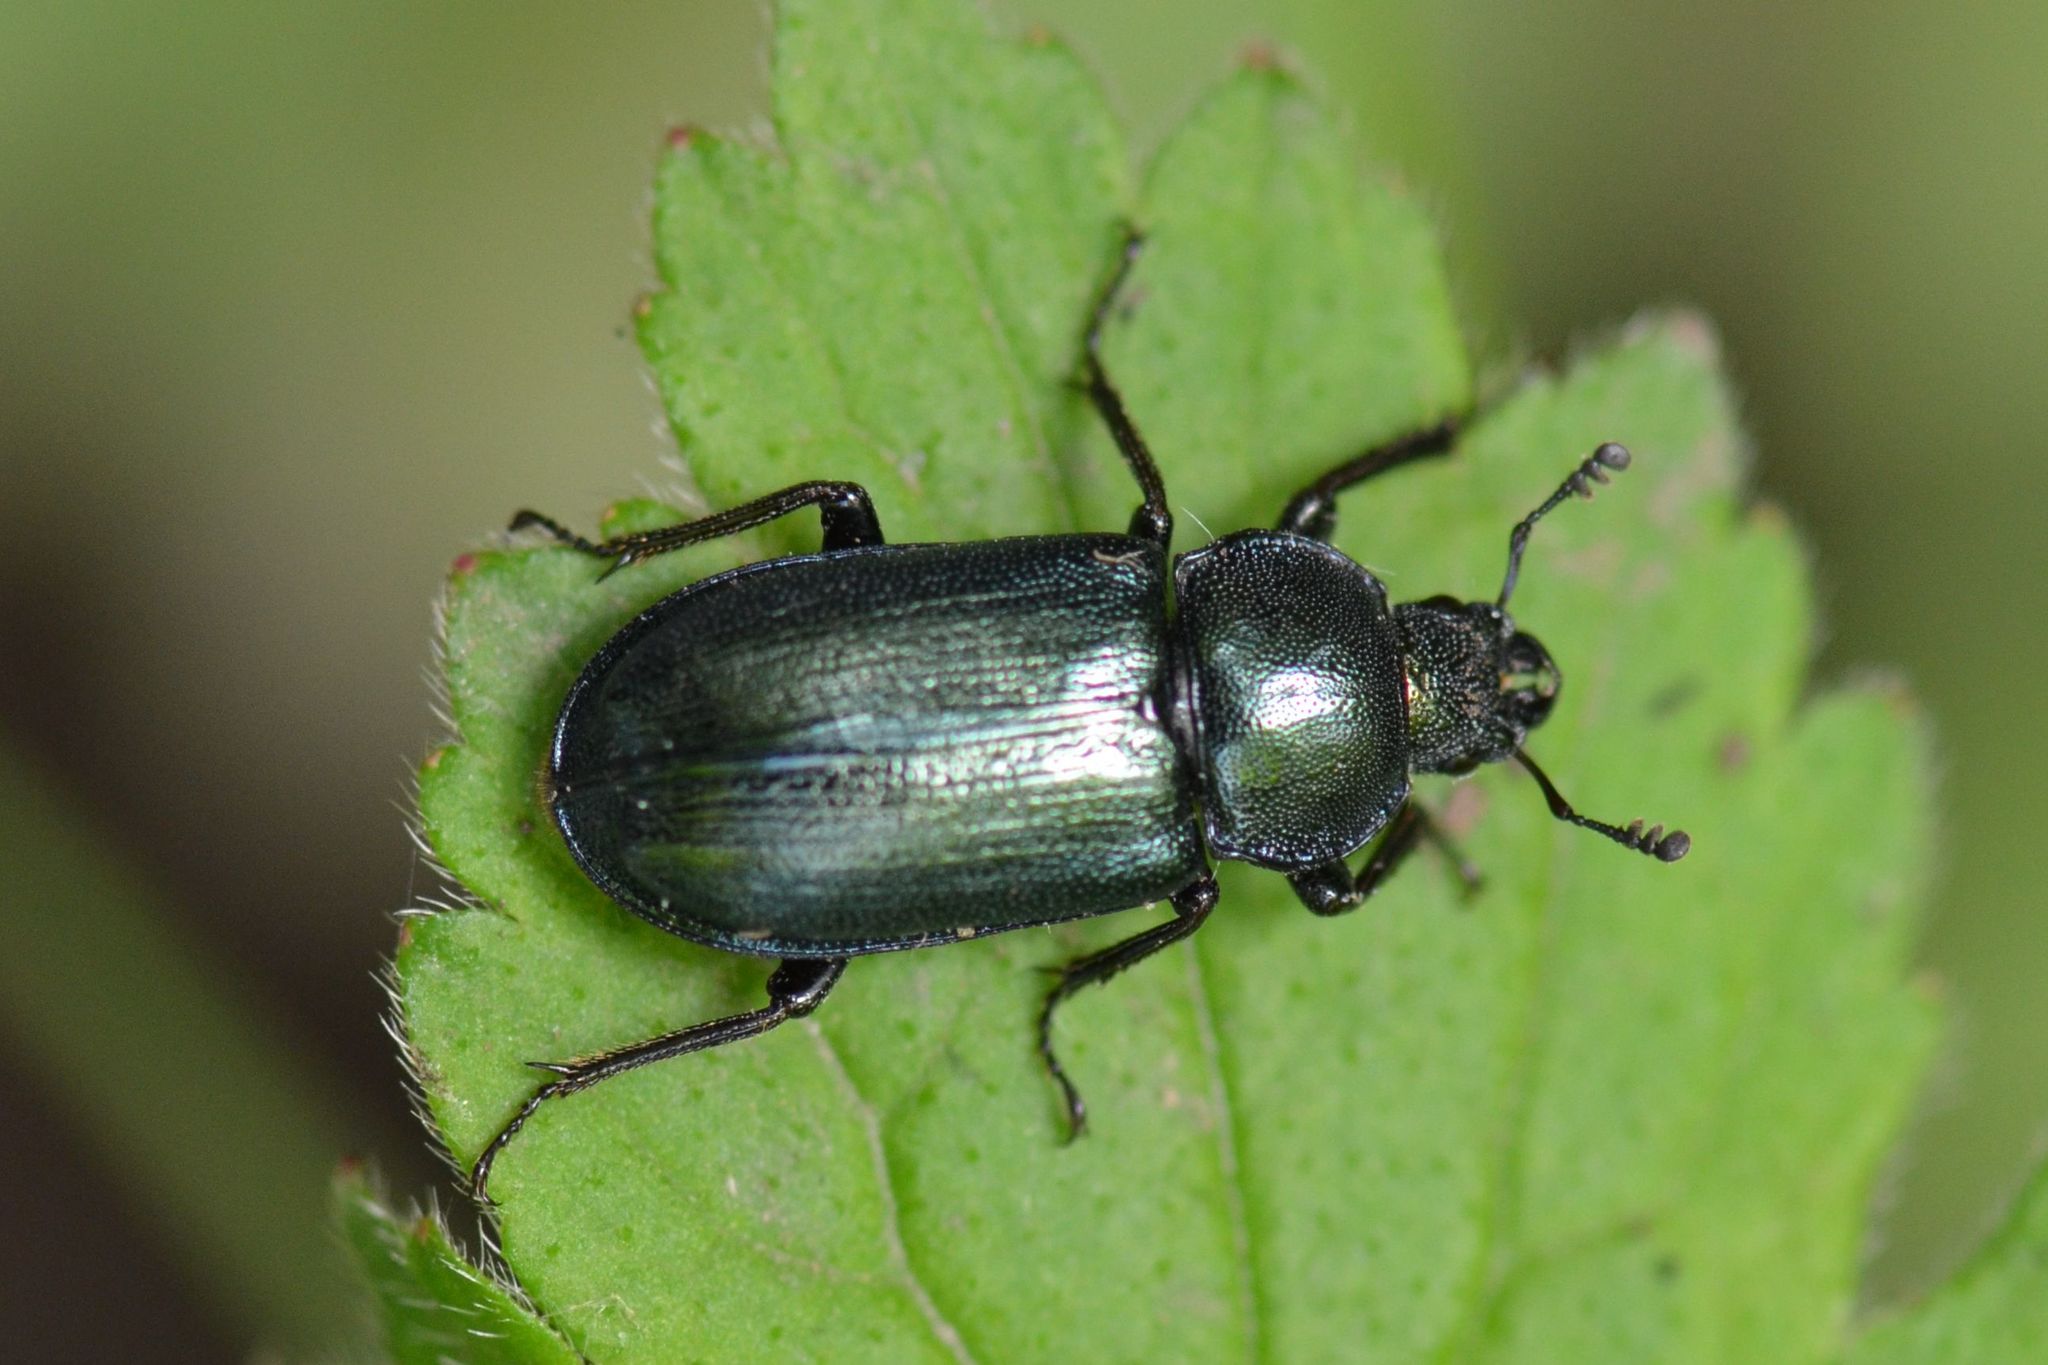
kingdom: Animalia
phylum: Arthropoda
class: Insecta
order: Coleoptera
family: Lucanidae
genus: Platycerus
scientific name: Platycerus caraboides
